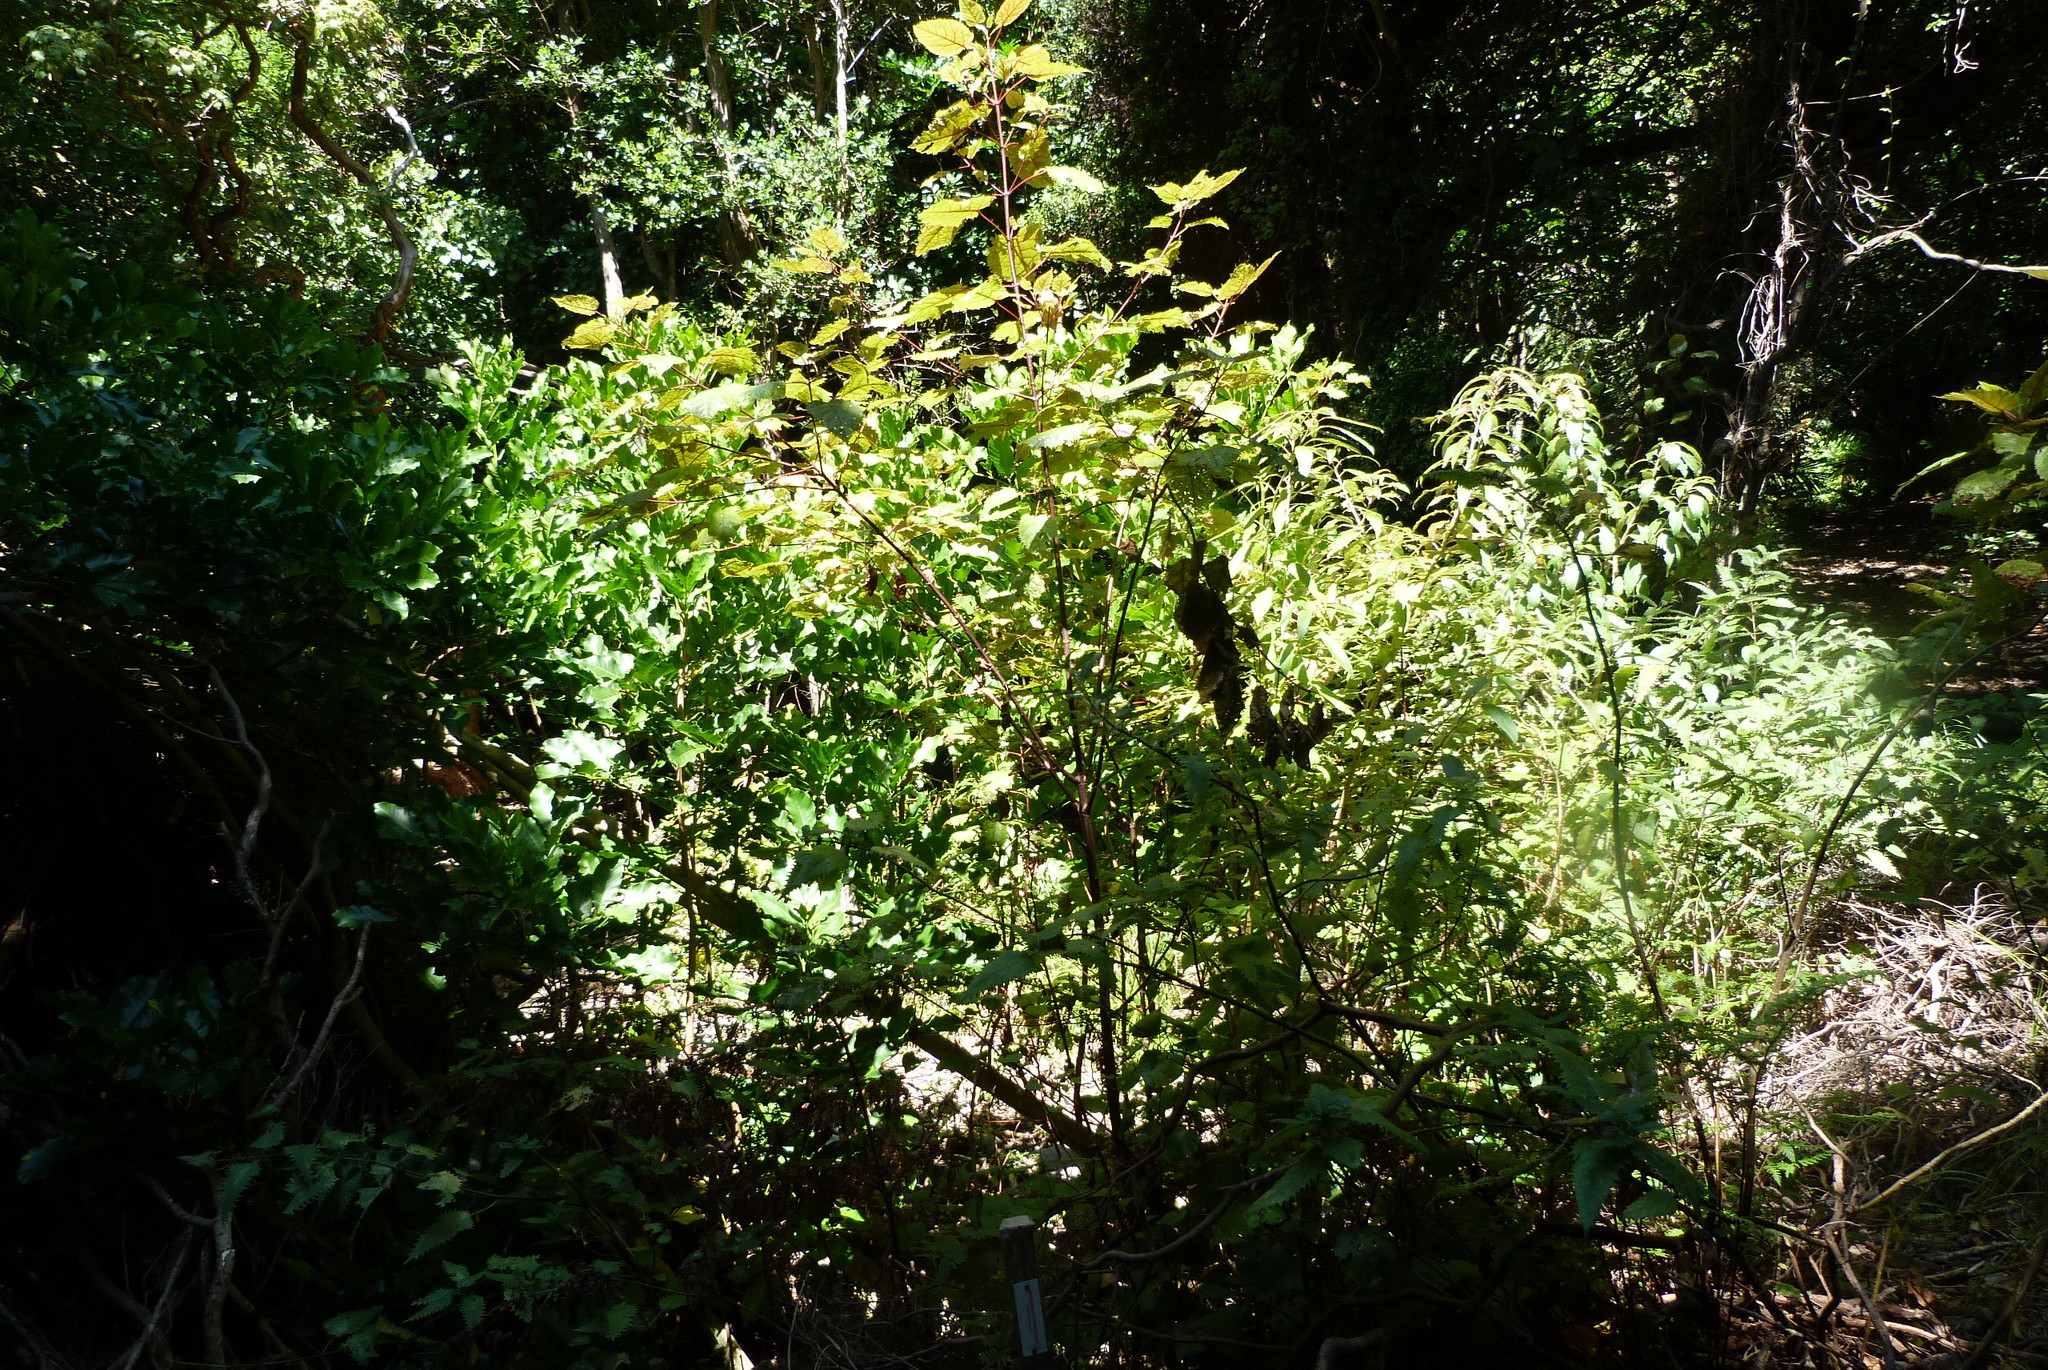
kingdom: Plantae
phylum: Tracheophyta
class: Magnoliopsida
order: Oxalidales
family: Elaeocarpaceae
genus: Aristotelia
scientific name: Aristotelia serrata
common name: New zealand wineberry
